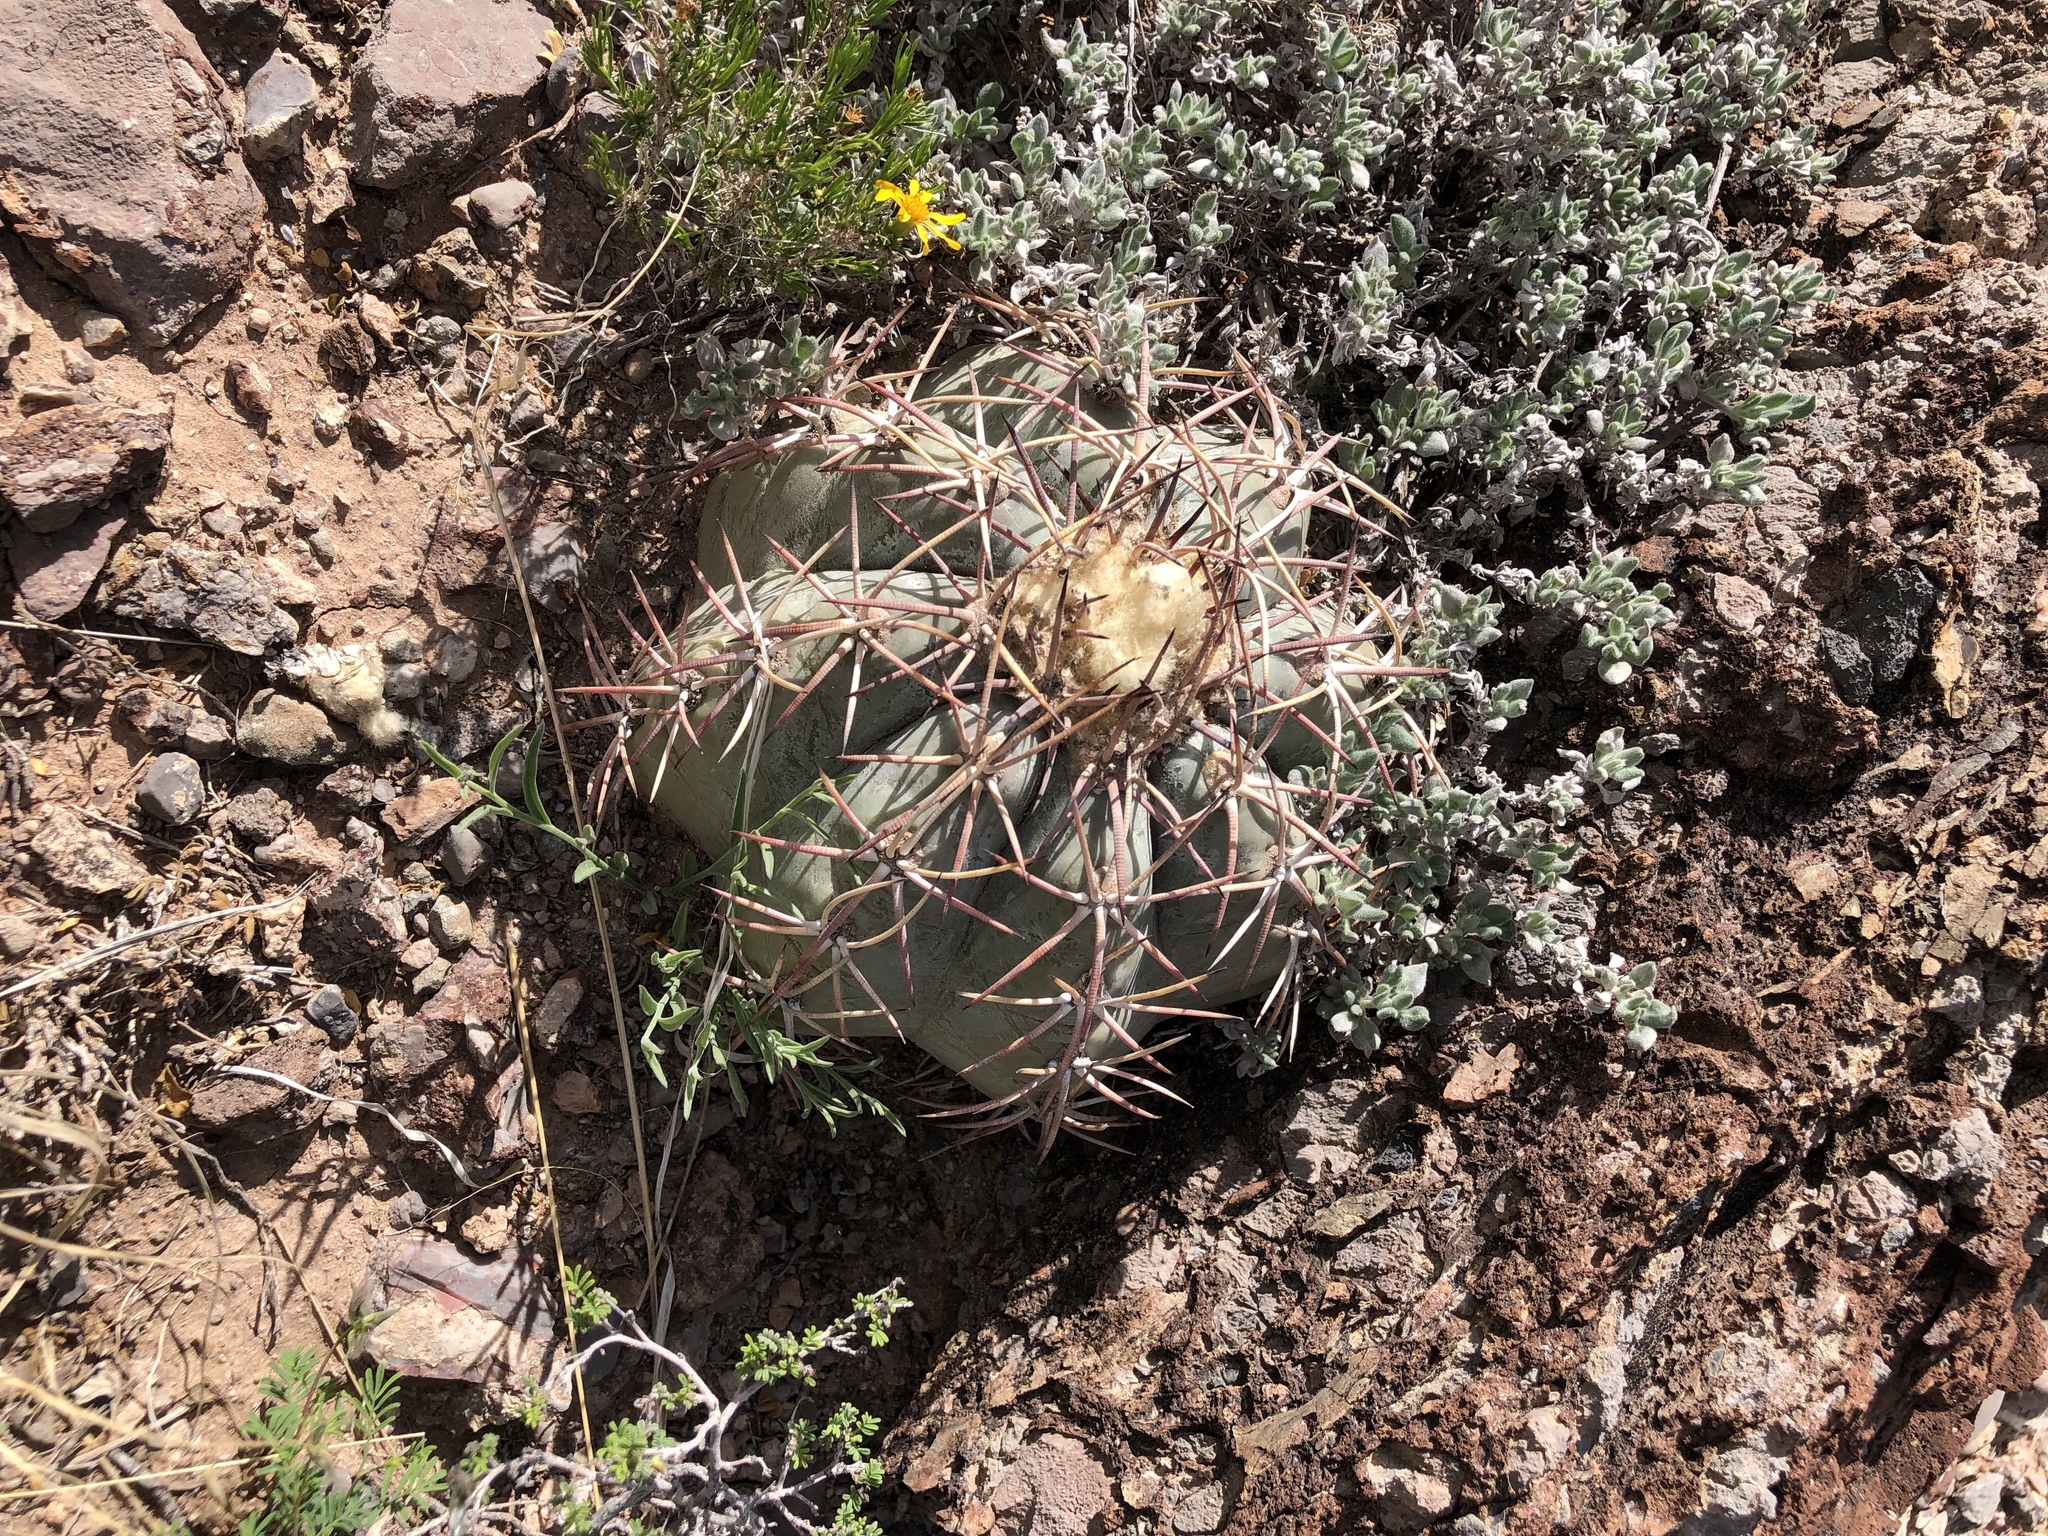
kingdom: Plantae
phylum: Tracheophyta
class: Magnoliopsida
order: Caryophyllales
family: Cactaceae
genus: Echinocactus
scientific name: Echinocactus horizonthalonius
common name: Devilshead
